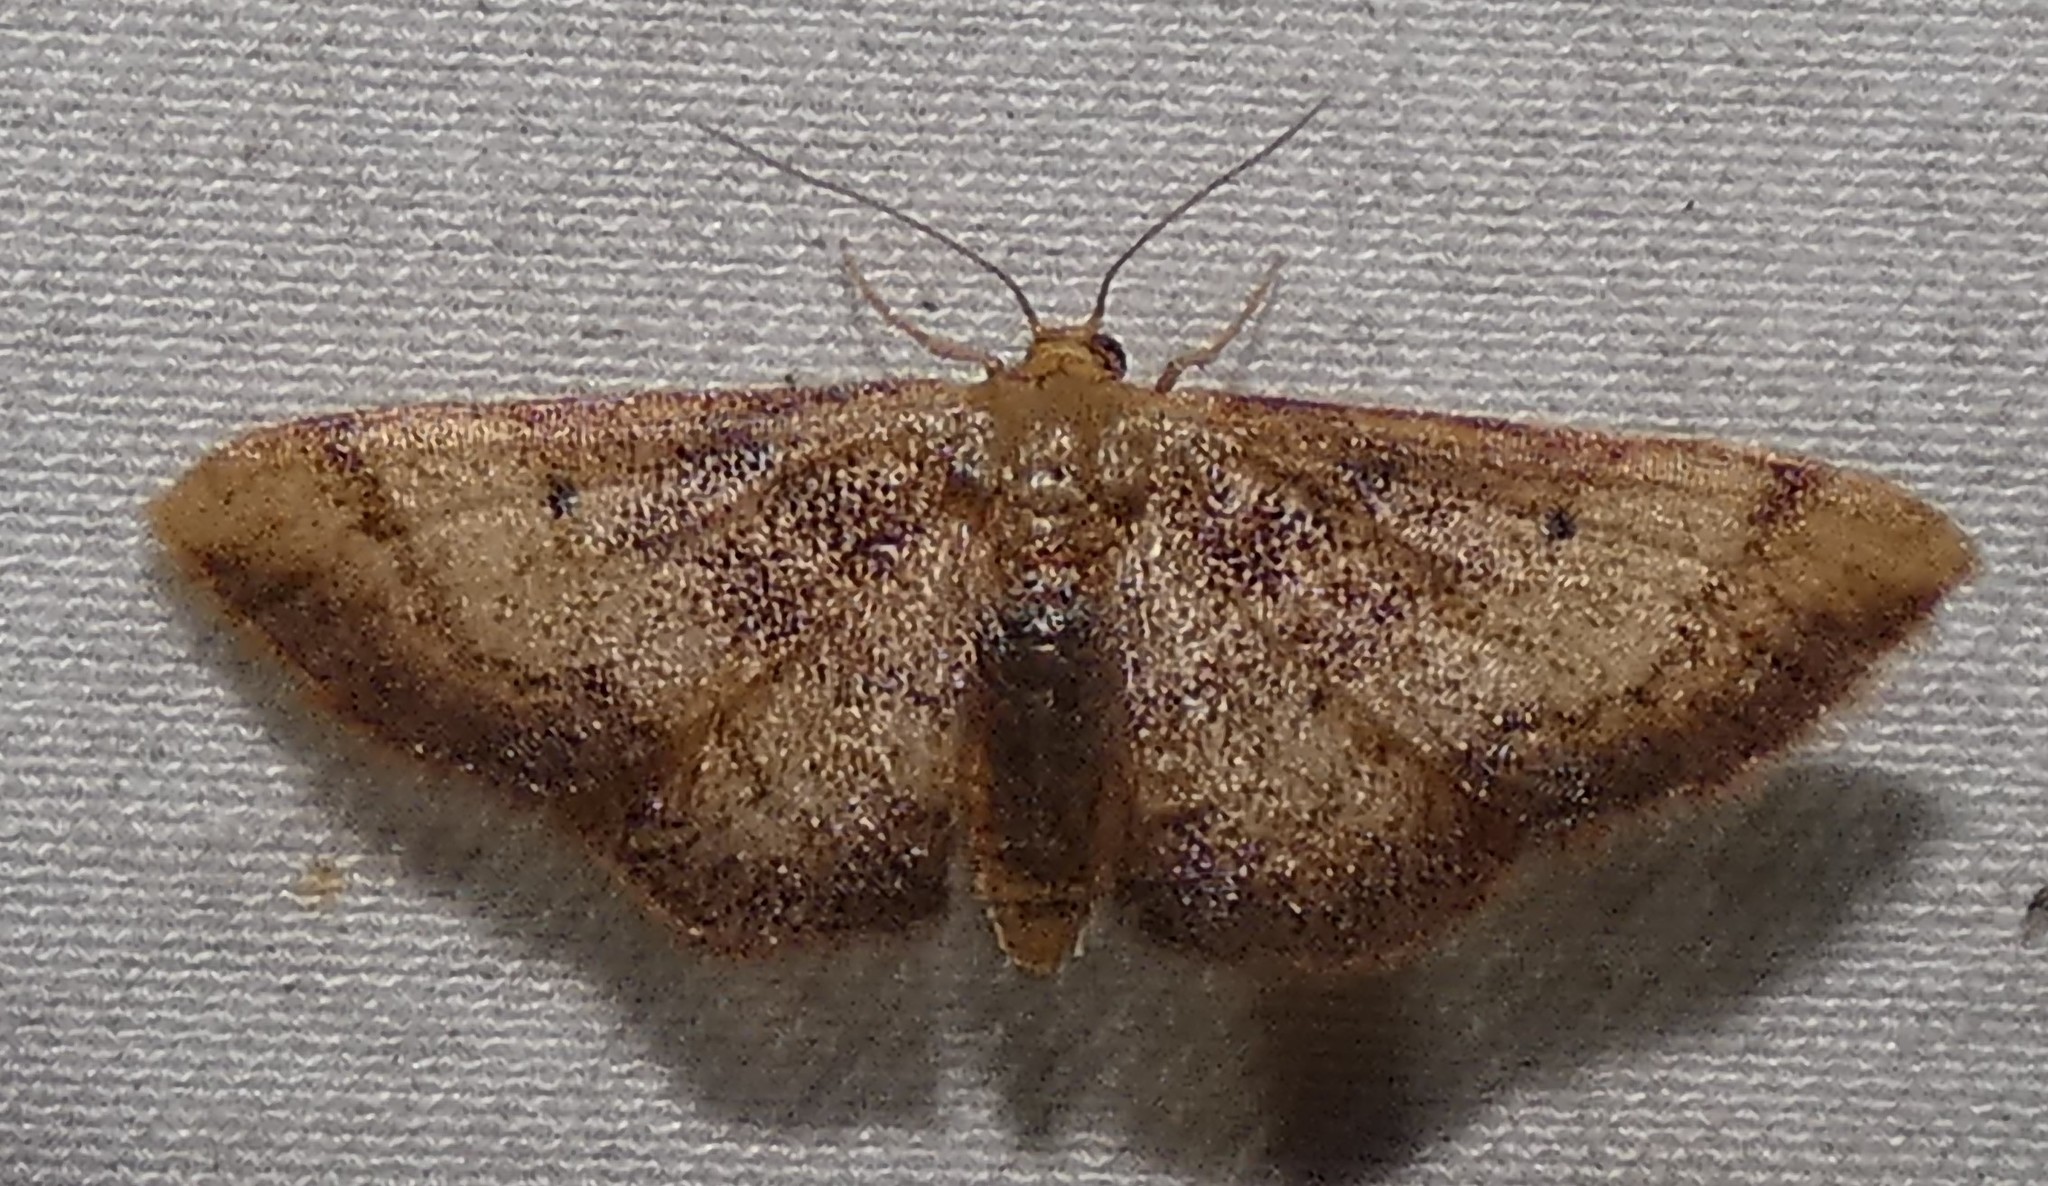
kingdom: Animalia
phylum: Arthropoda
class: Insecta
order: Lepidoptera
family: Geometridae
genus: Idaea
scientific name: Idaea demissaria
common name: Red-bordered wave
